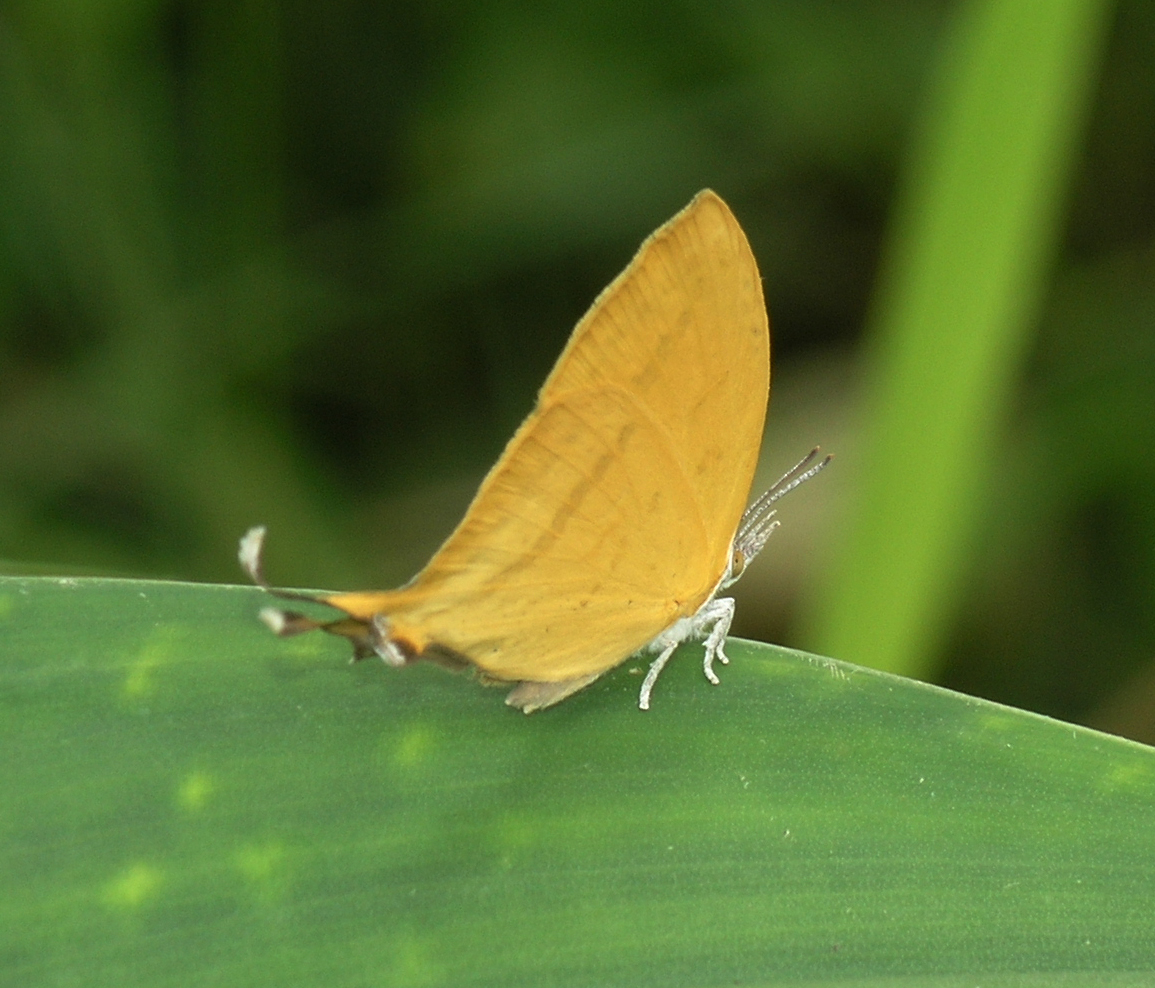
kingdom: Animalia
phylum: Arthropoda
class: Insecta
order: Lepidoptera
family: Lycaenidae
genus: Loxura
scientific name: Loxura atymnus
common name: Common yamfly
